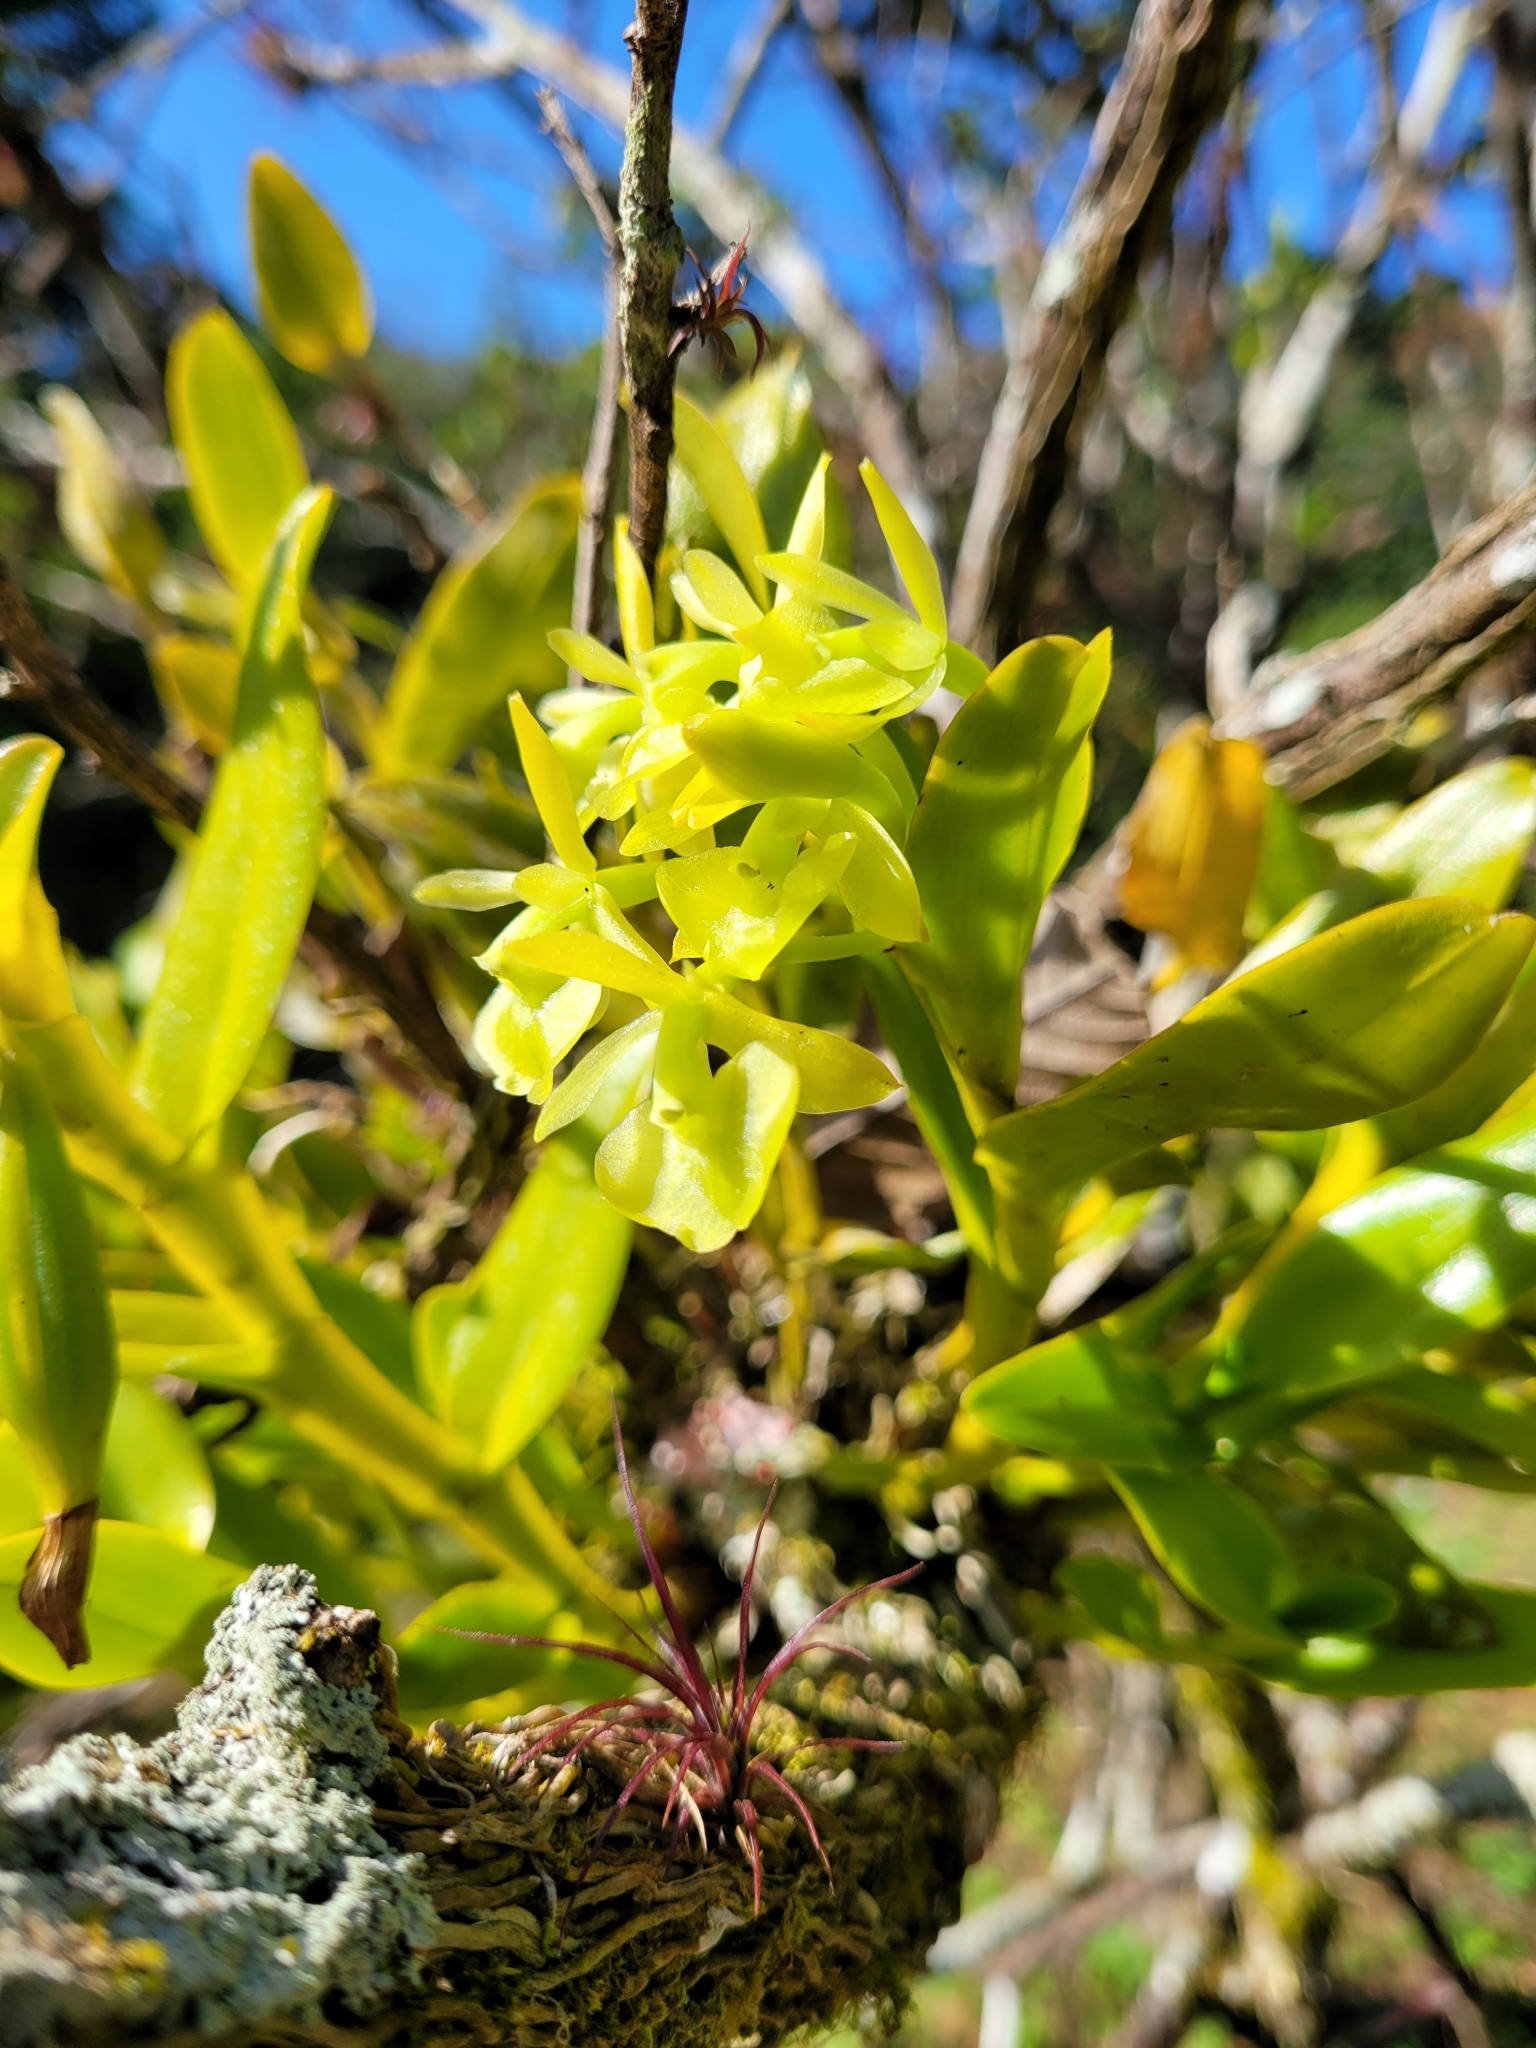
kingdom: Plantae
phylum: Tracheophyta
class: Liliopsida
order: Asparagales
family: Orchidaceae
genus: Epidendrum
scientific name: Epidendrum boricuarum
